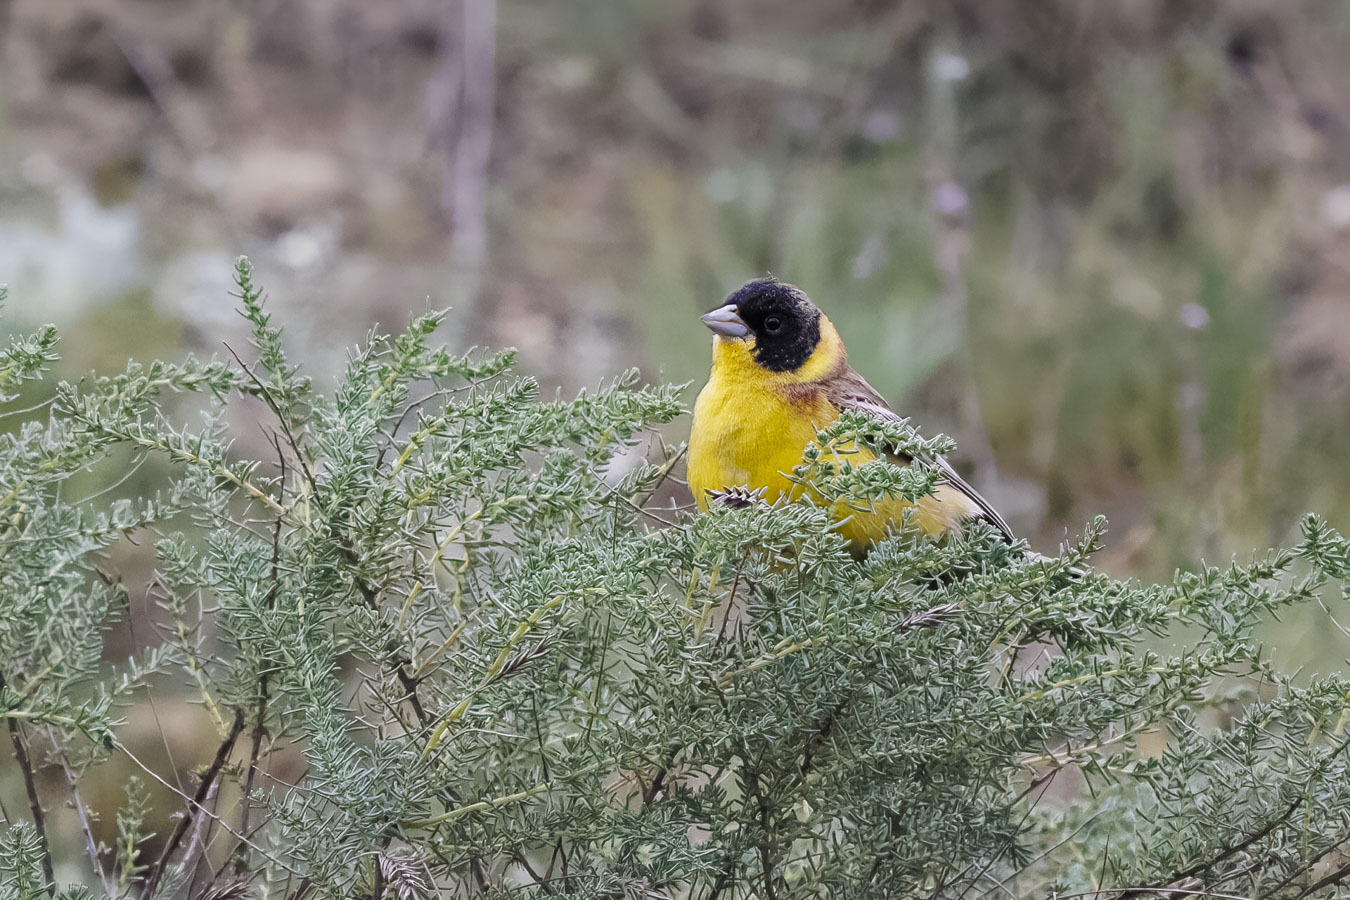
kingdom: Animalia
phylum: Chordata
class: Aves
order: Passeriformes
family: Emberizidae
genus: Emberiza
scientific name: Emberiza melanocephala
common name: Black-headed bunting
